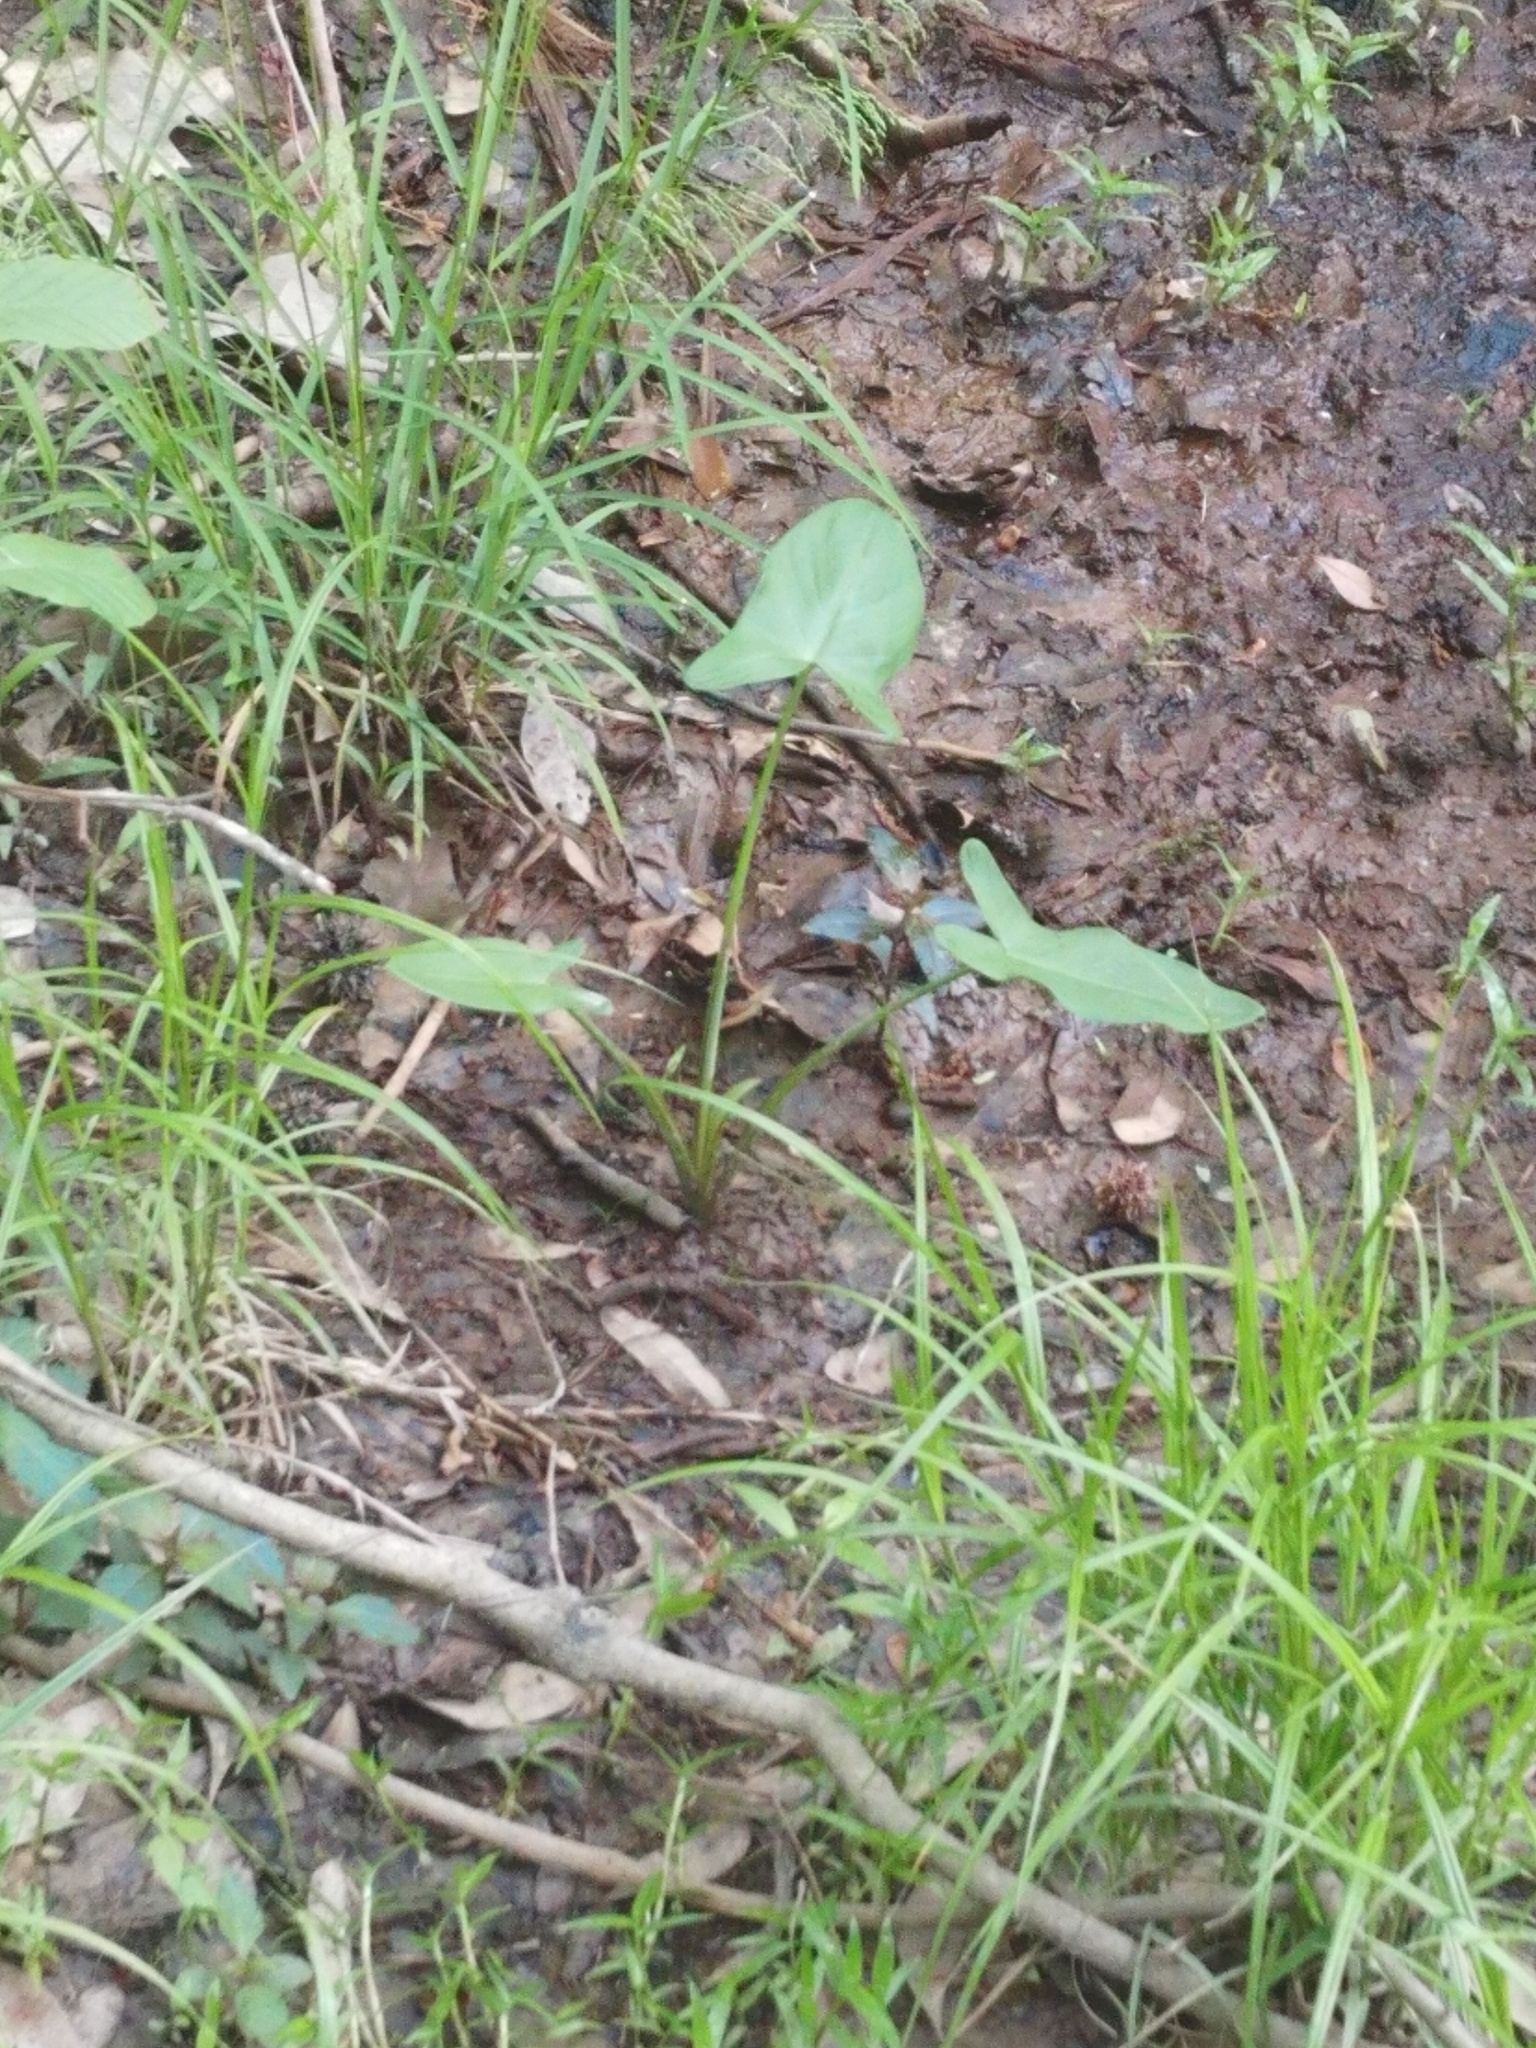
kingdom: Plantae
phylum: Tracheophyta
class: Liliopsida
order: Alismatales
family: Araceae
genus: Peltandra
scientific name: Peltandra virginica
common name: Arrow arum
